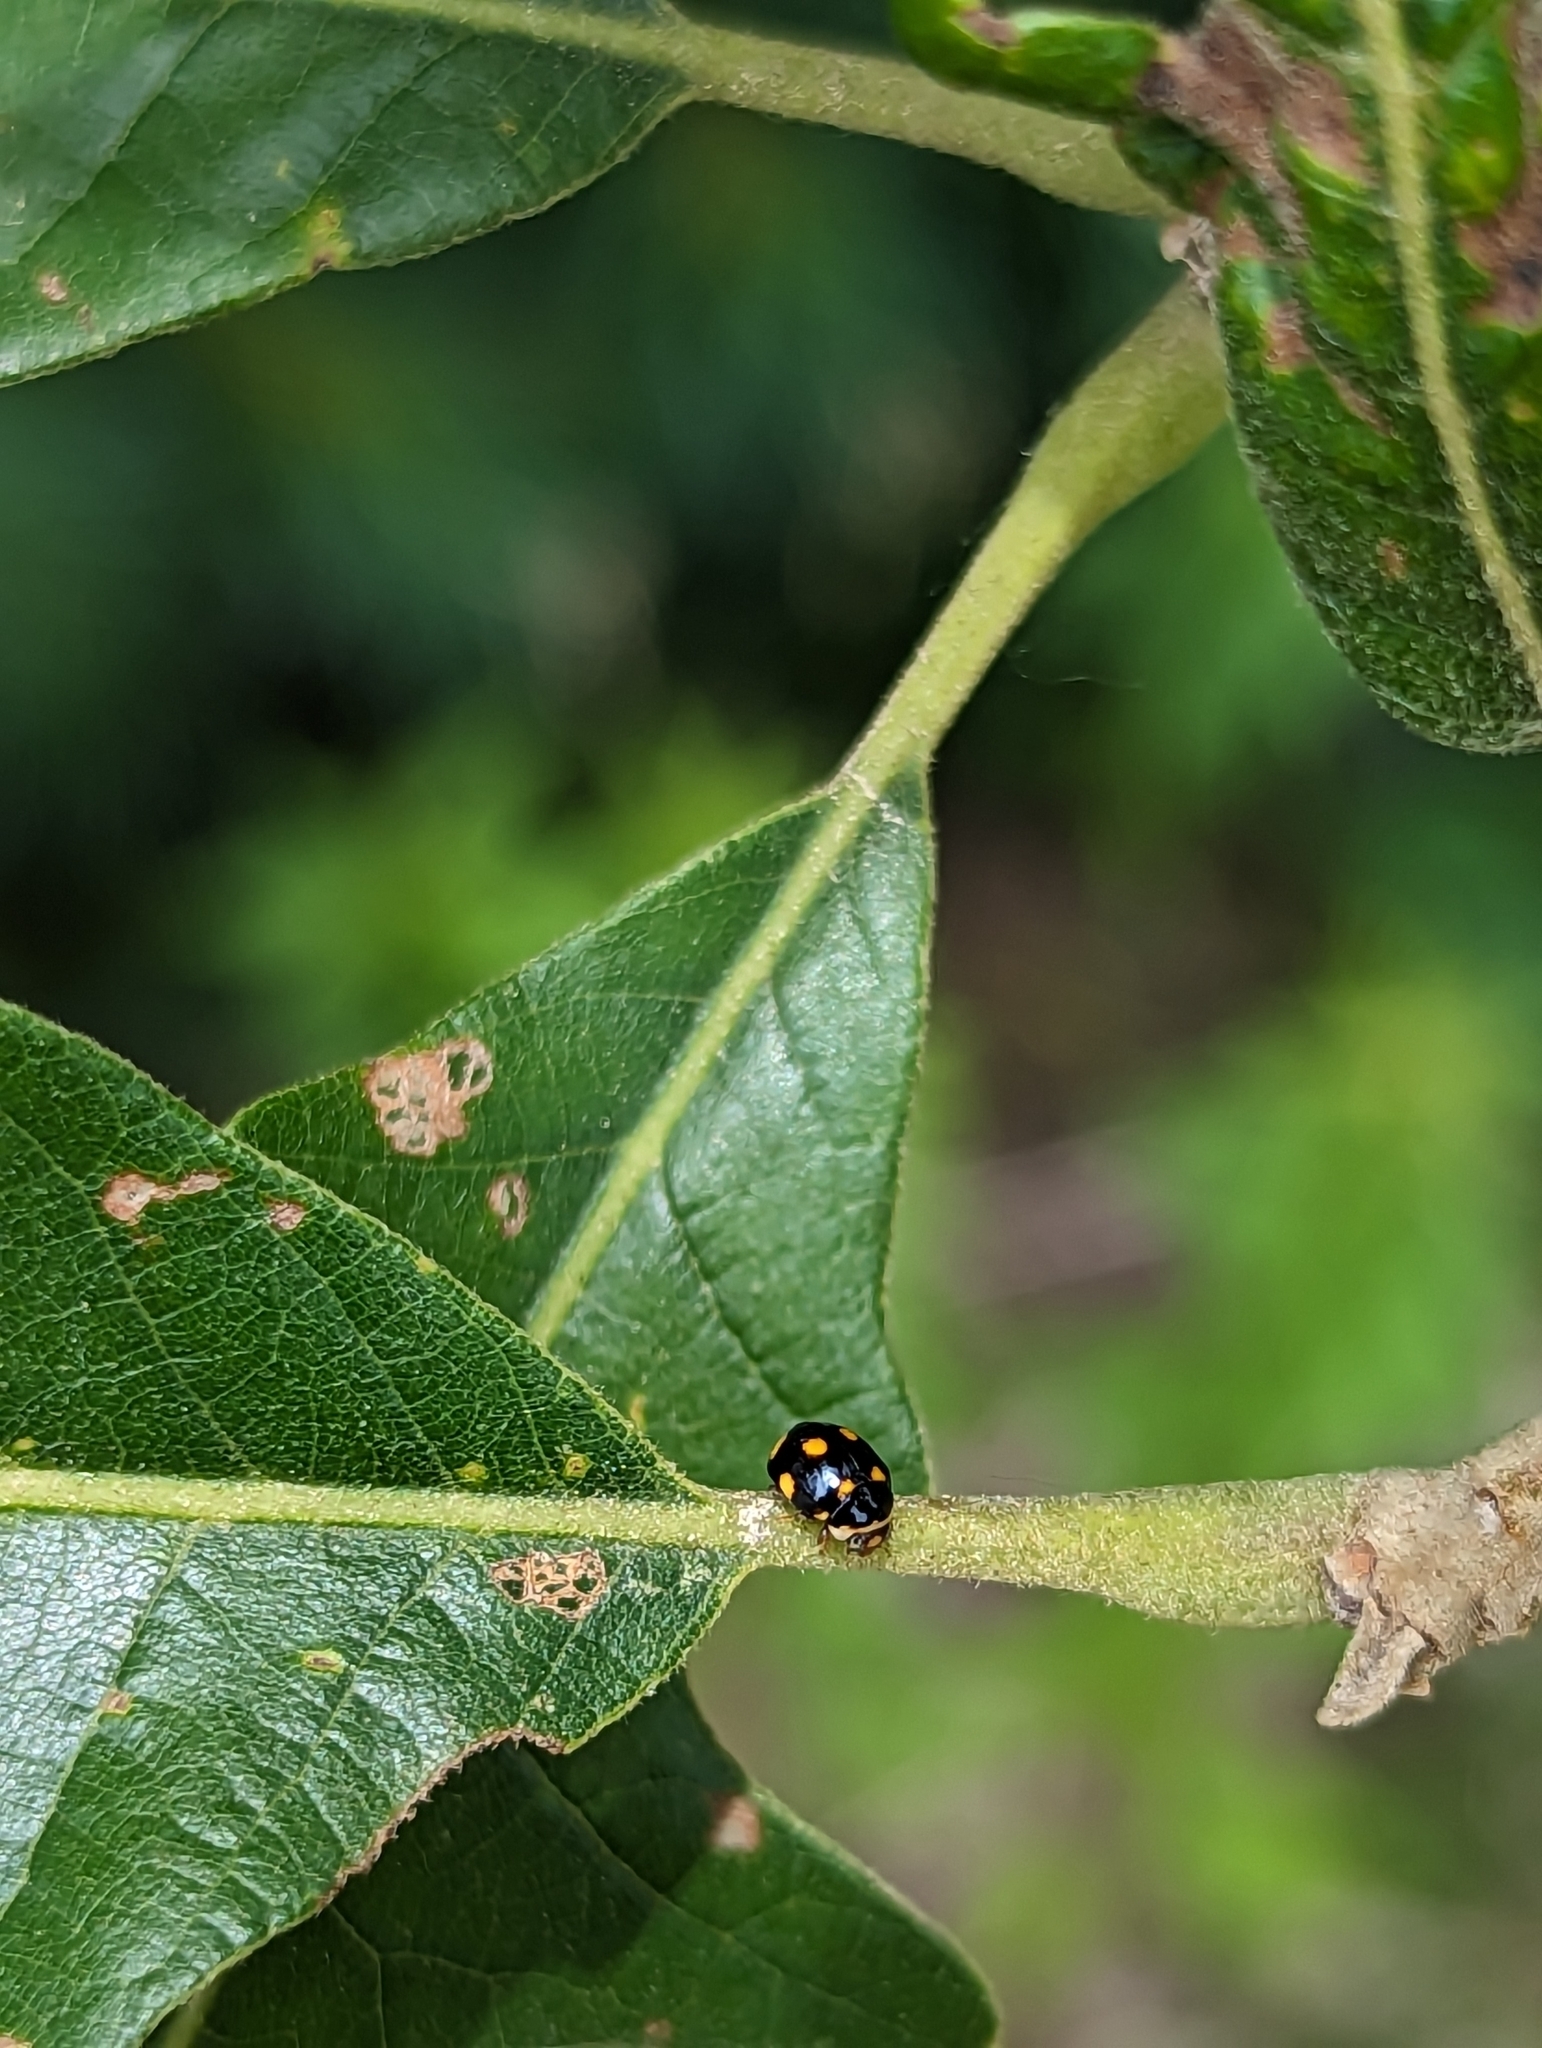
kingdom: Animalia
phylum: Arthropoda
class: Insecta
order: Coleoptera
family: Coccinellidae
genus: Brachiacantha
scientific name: Brachiacantha ursina
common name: Ursine spurleg lady beetle
